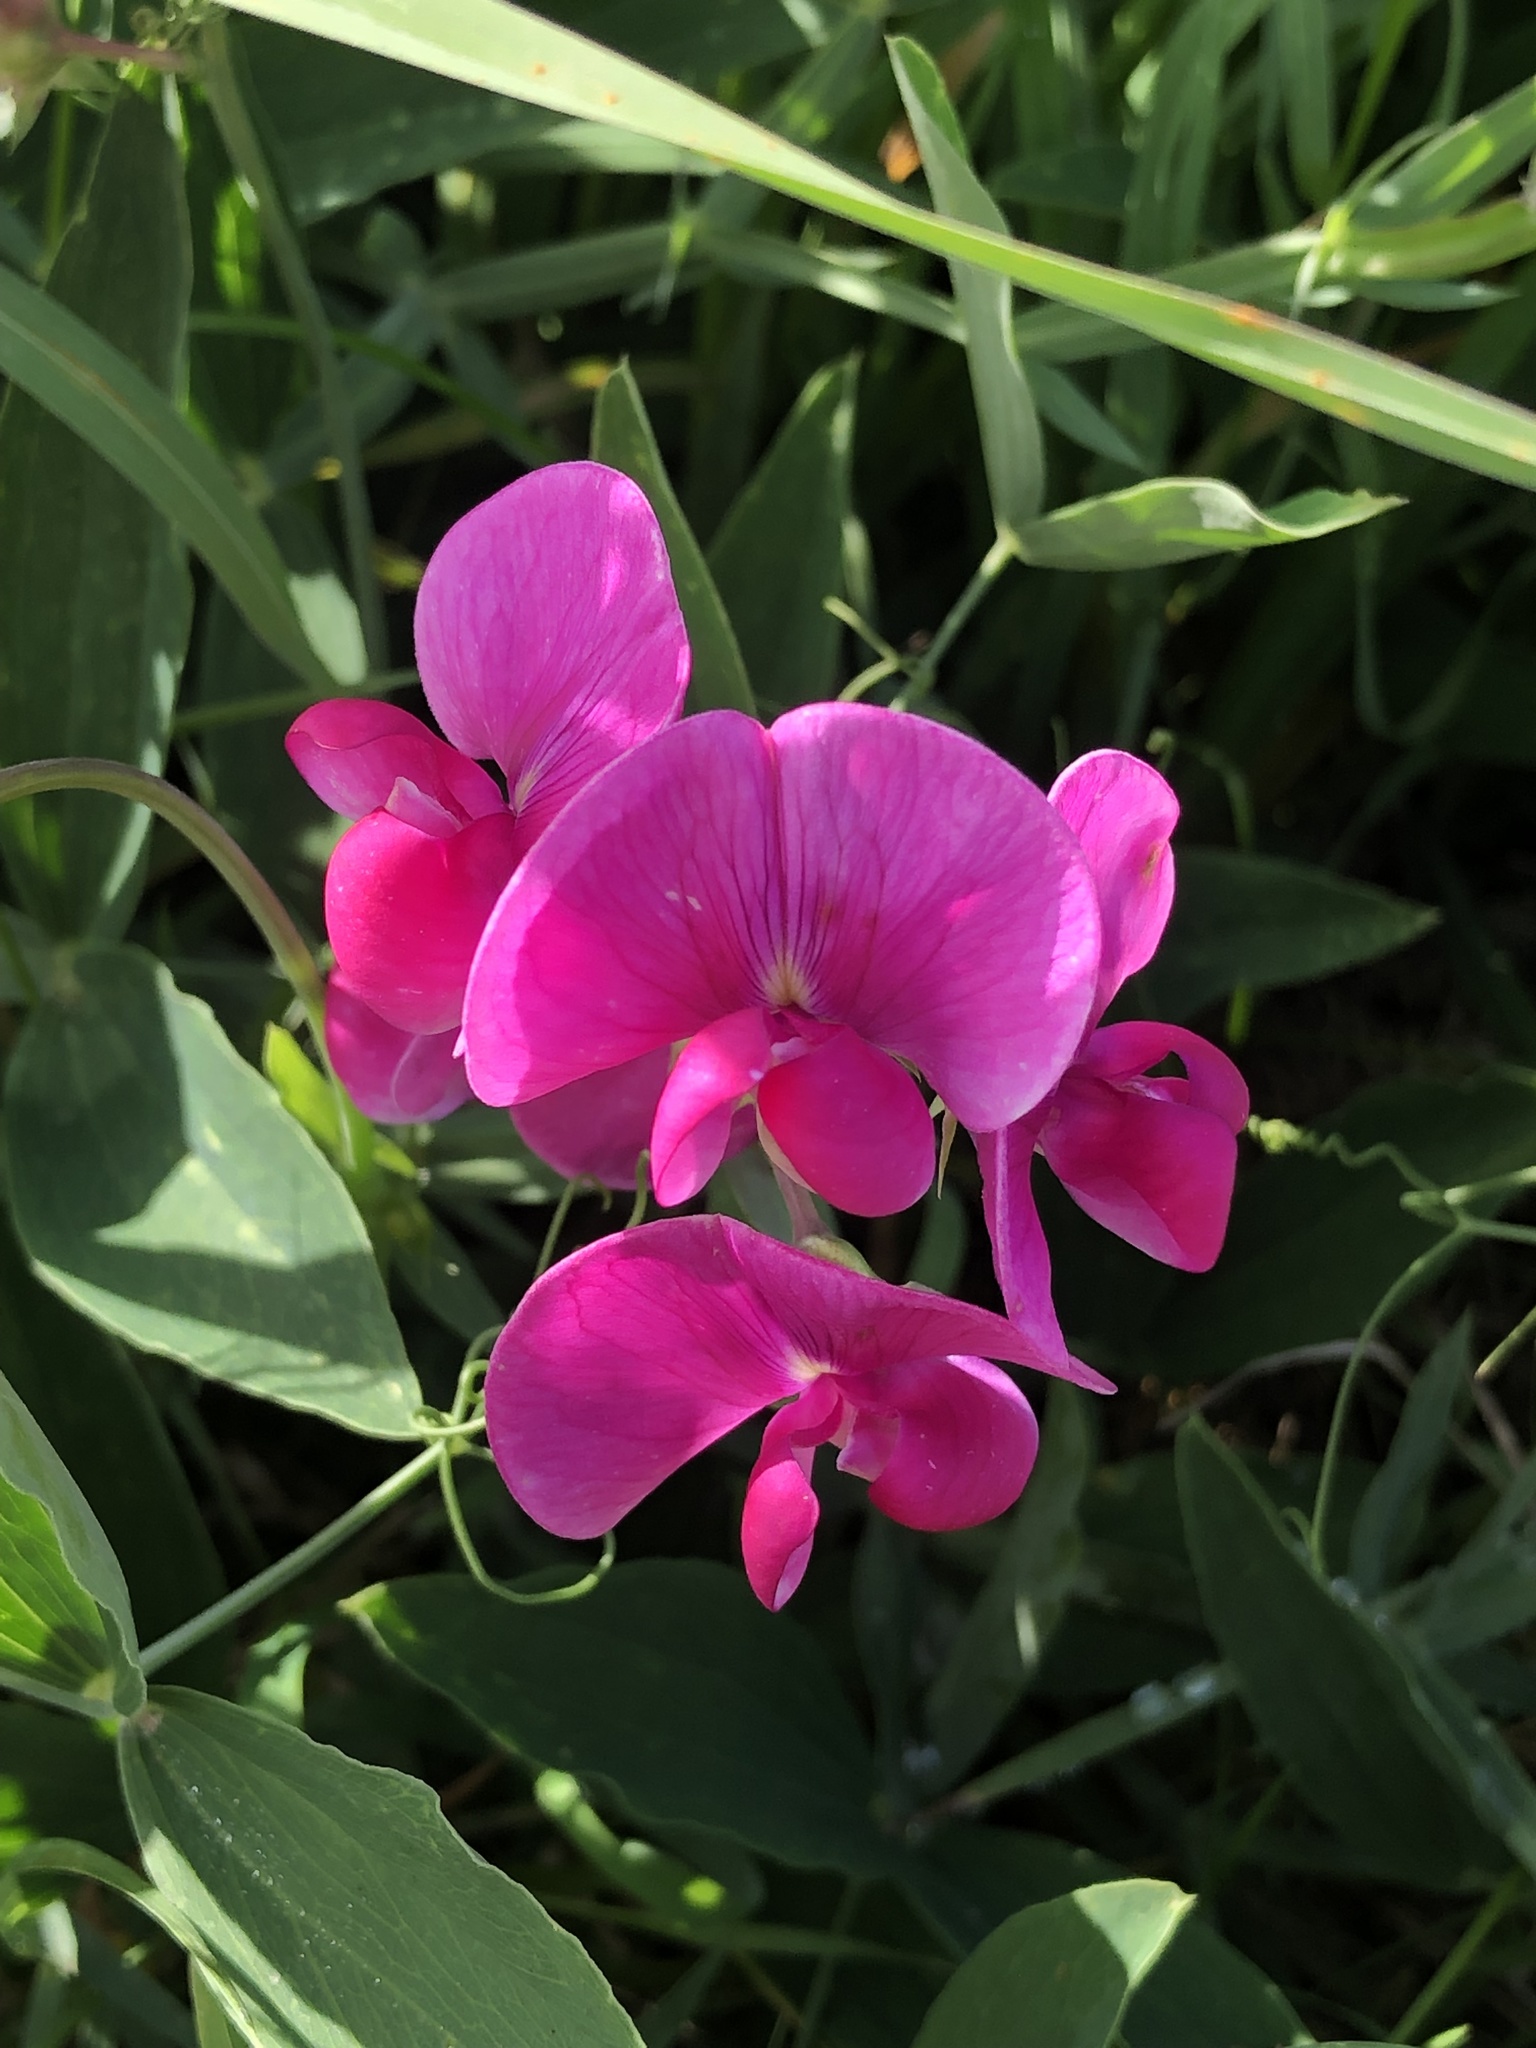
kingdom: Plantae
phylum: Tracheophyta
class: Magnoliopsida
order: Fabales
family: Fabaceae
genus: Lathyrus
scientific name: Lathyrus latifolius
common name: Perennial pea
